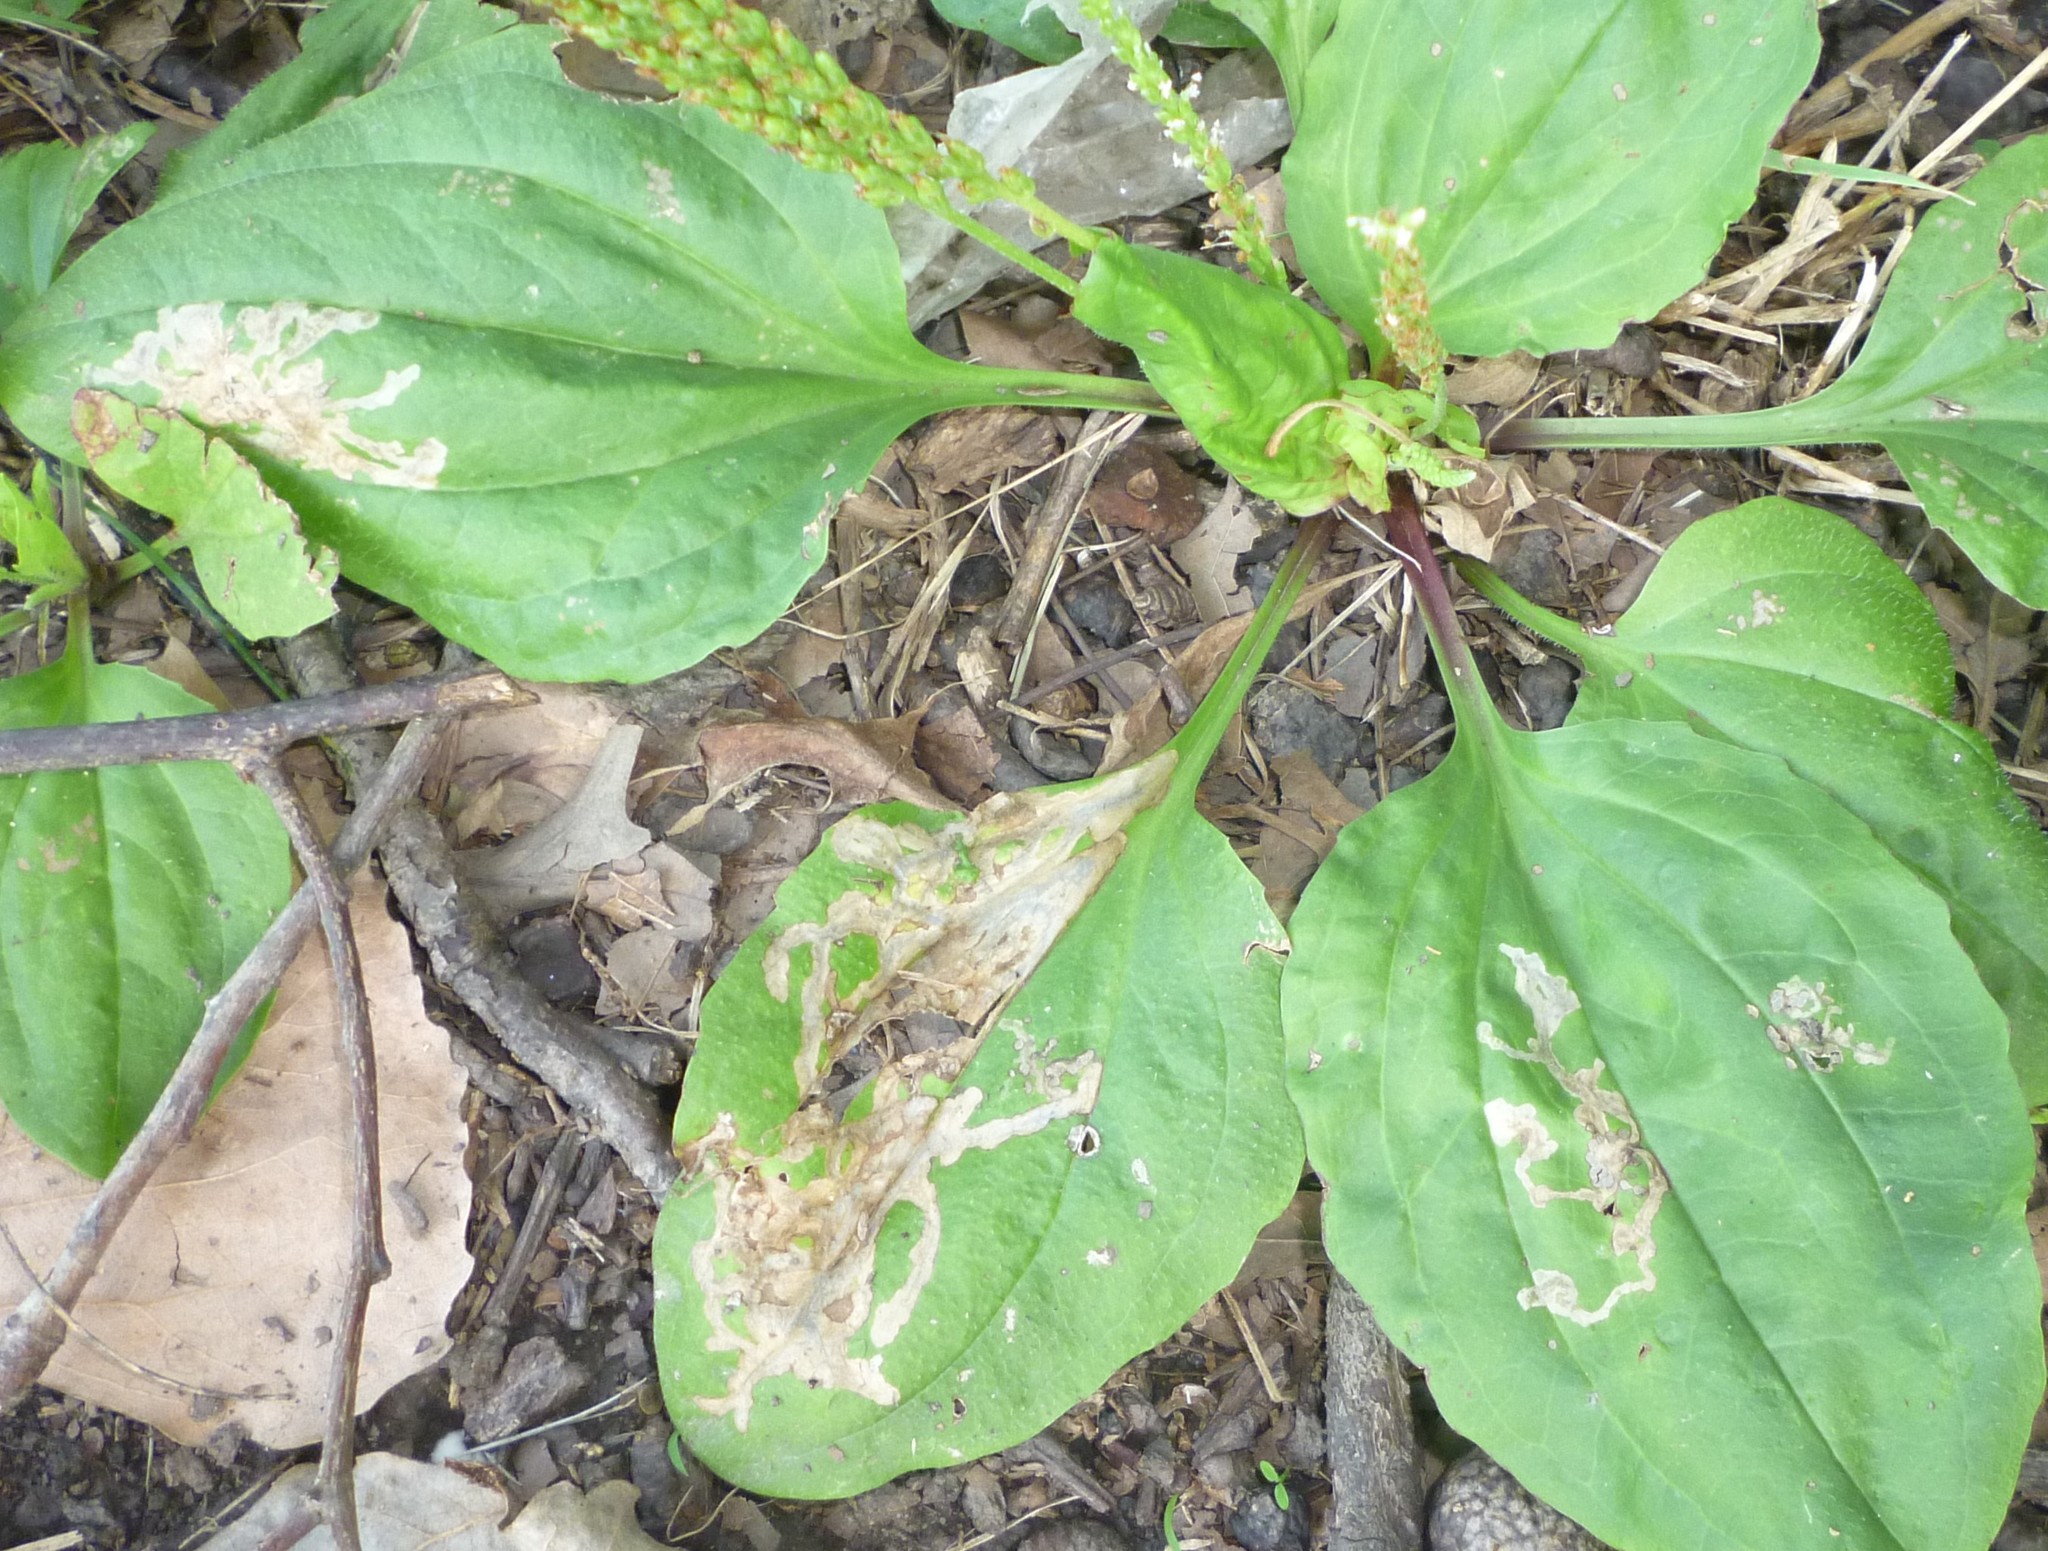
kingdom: Animalia
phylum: Arthropoda
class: Insecta
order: Coleoptera
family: Chrysomelidae
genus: Dibolia
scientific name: Dibolia borealis
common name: Northern plantain flea beetle
